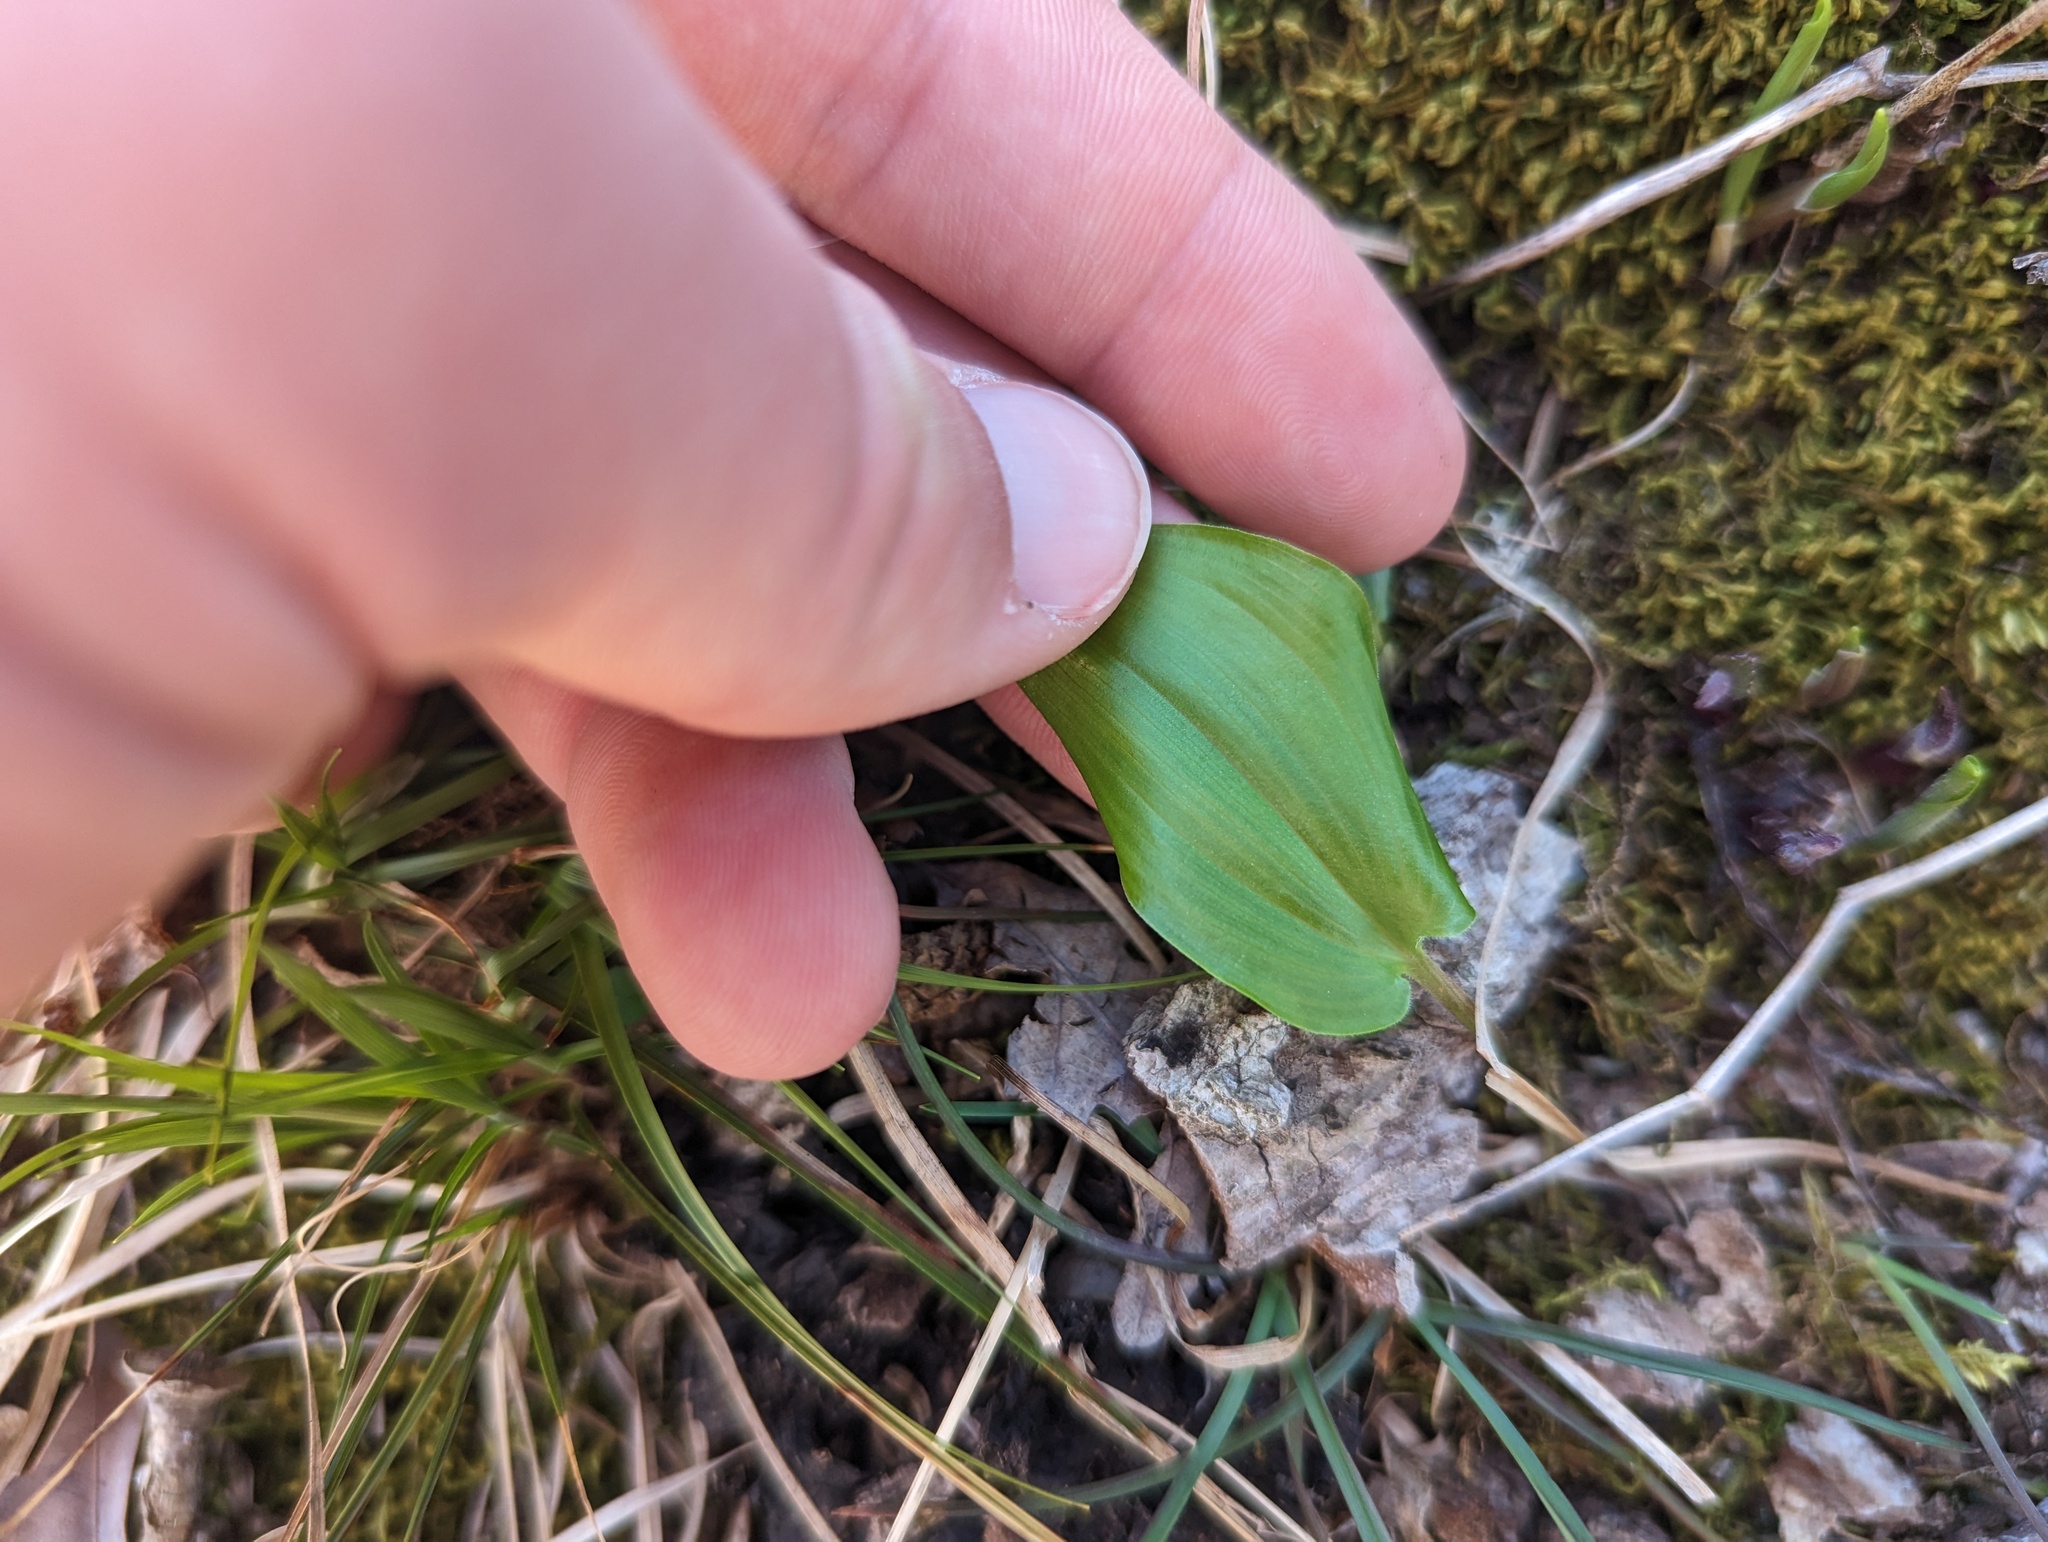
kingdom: Plantae
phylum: Tracheophyta
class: Liliopsida
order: Asparagales
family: Asparagaceae
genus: Maianthemum
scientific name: Maianthemum canadense
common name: False lily-of-the-valley
